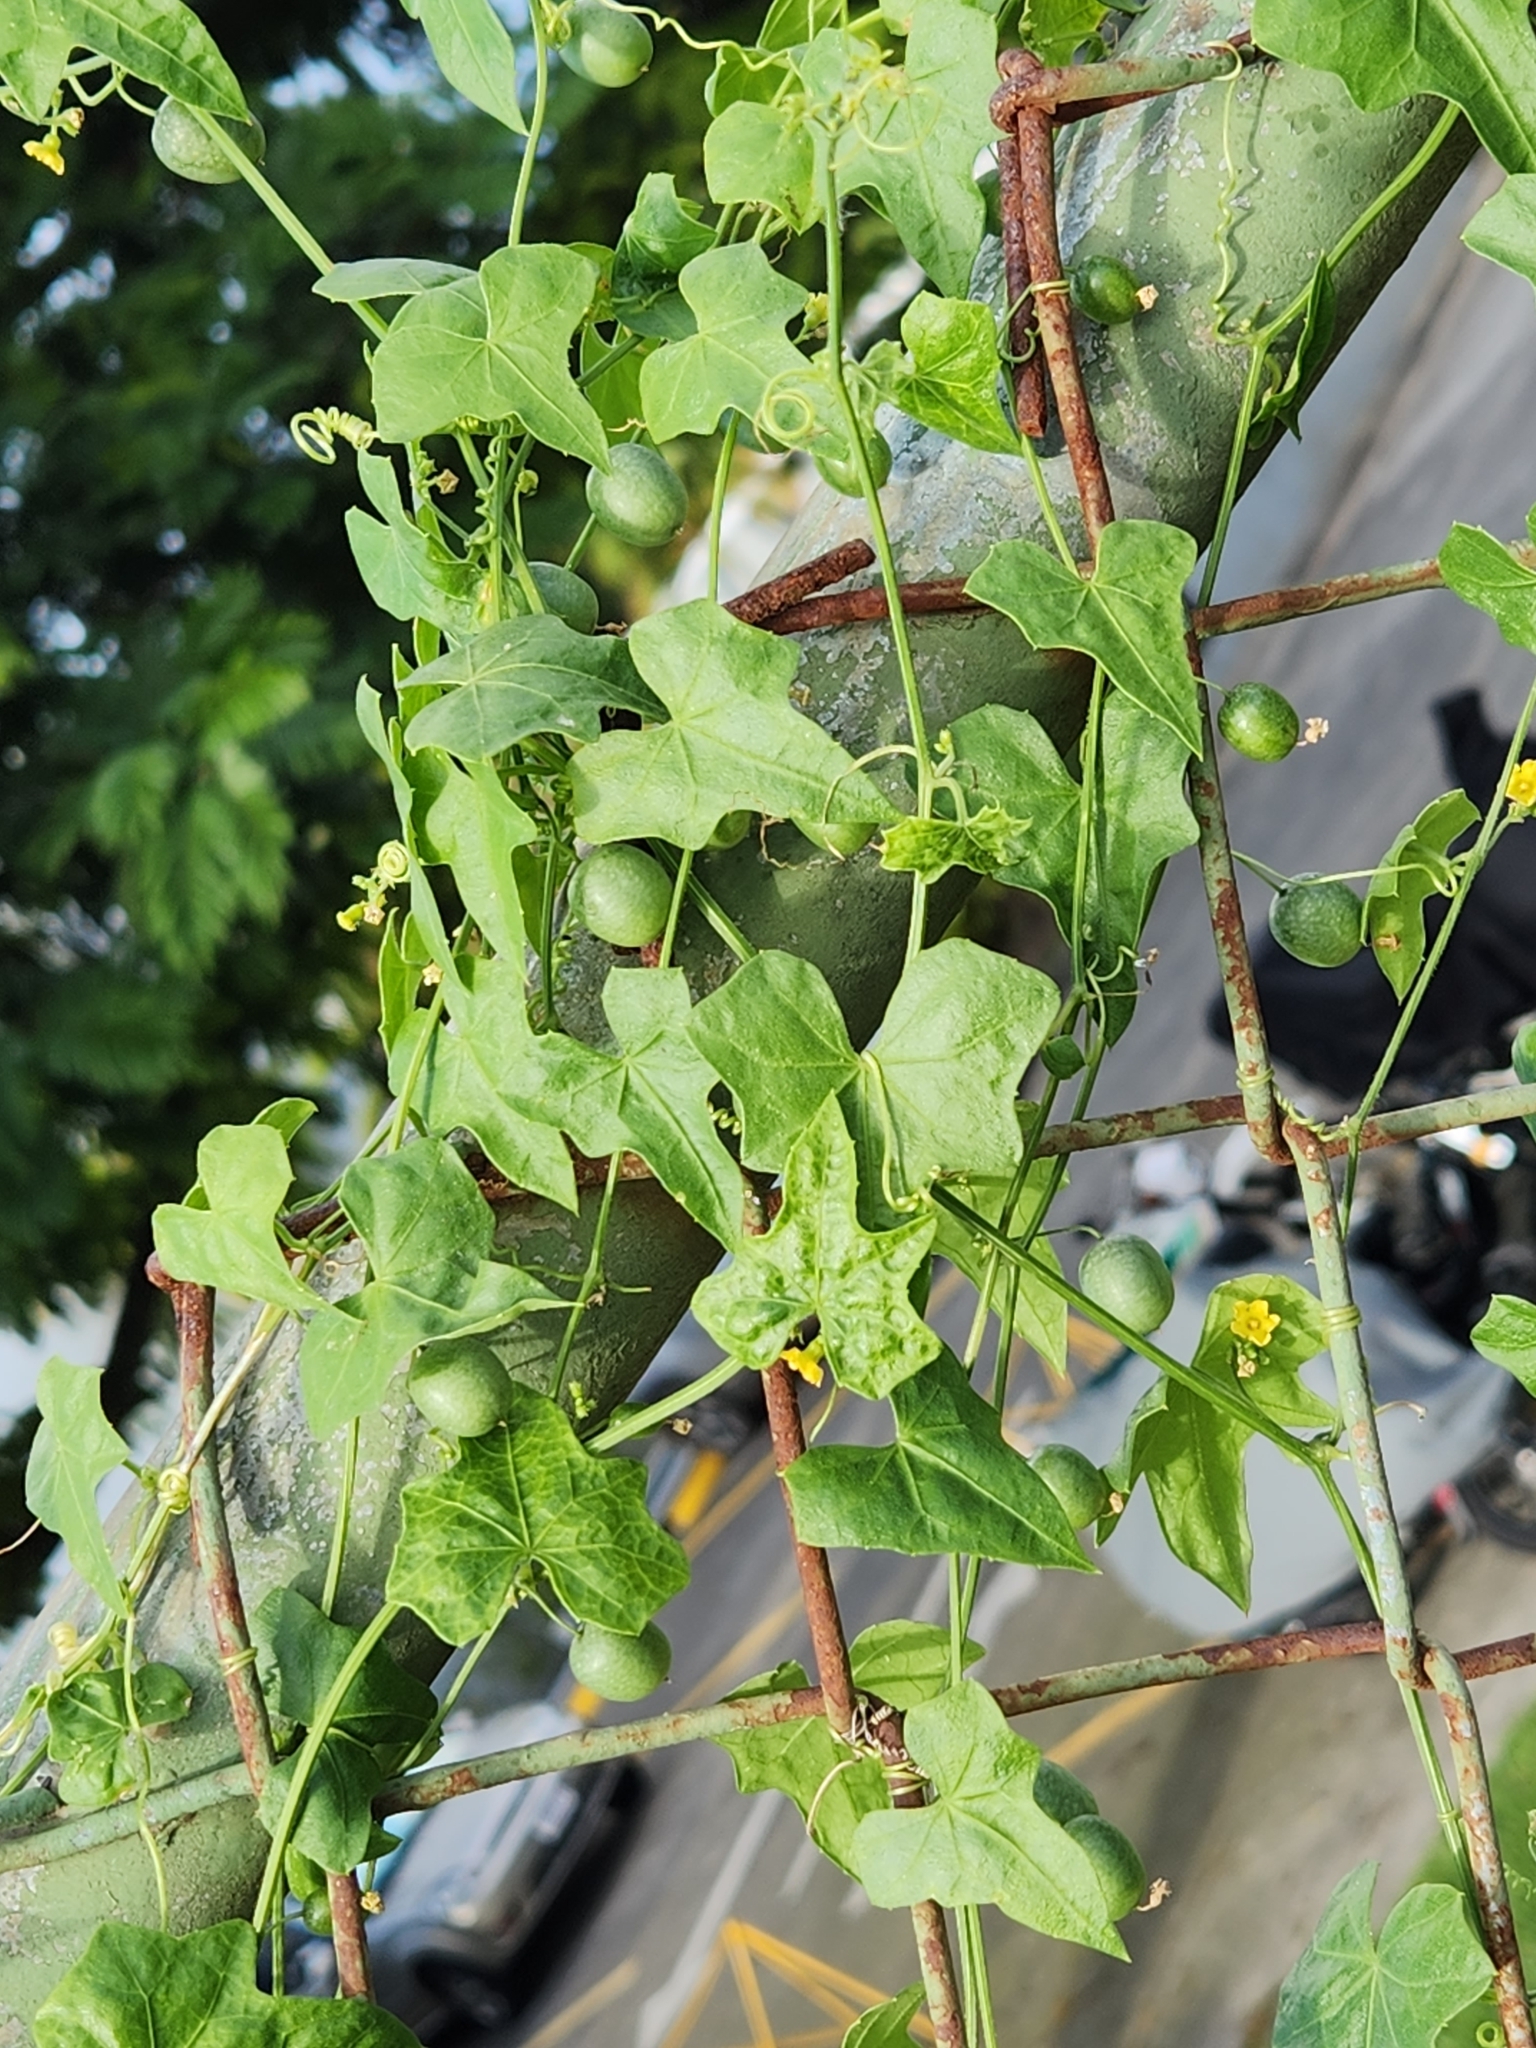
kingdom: Plantae
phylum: Tracheophyta
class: Magnoliopsida
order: Cucurbitales
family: Cucurbitaceae
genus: Melothria
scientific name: Melothria pendula
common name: Creeping-cucumber
